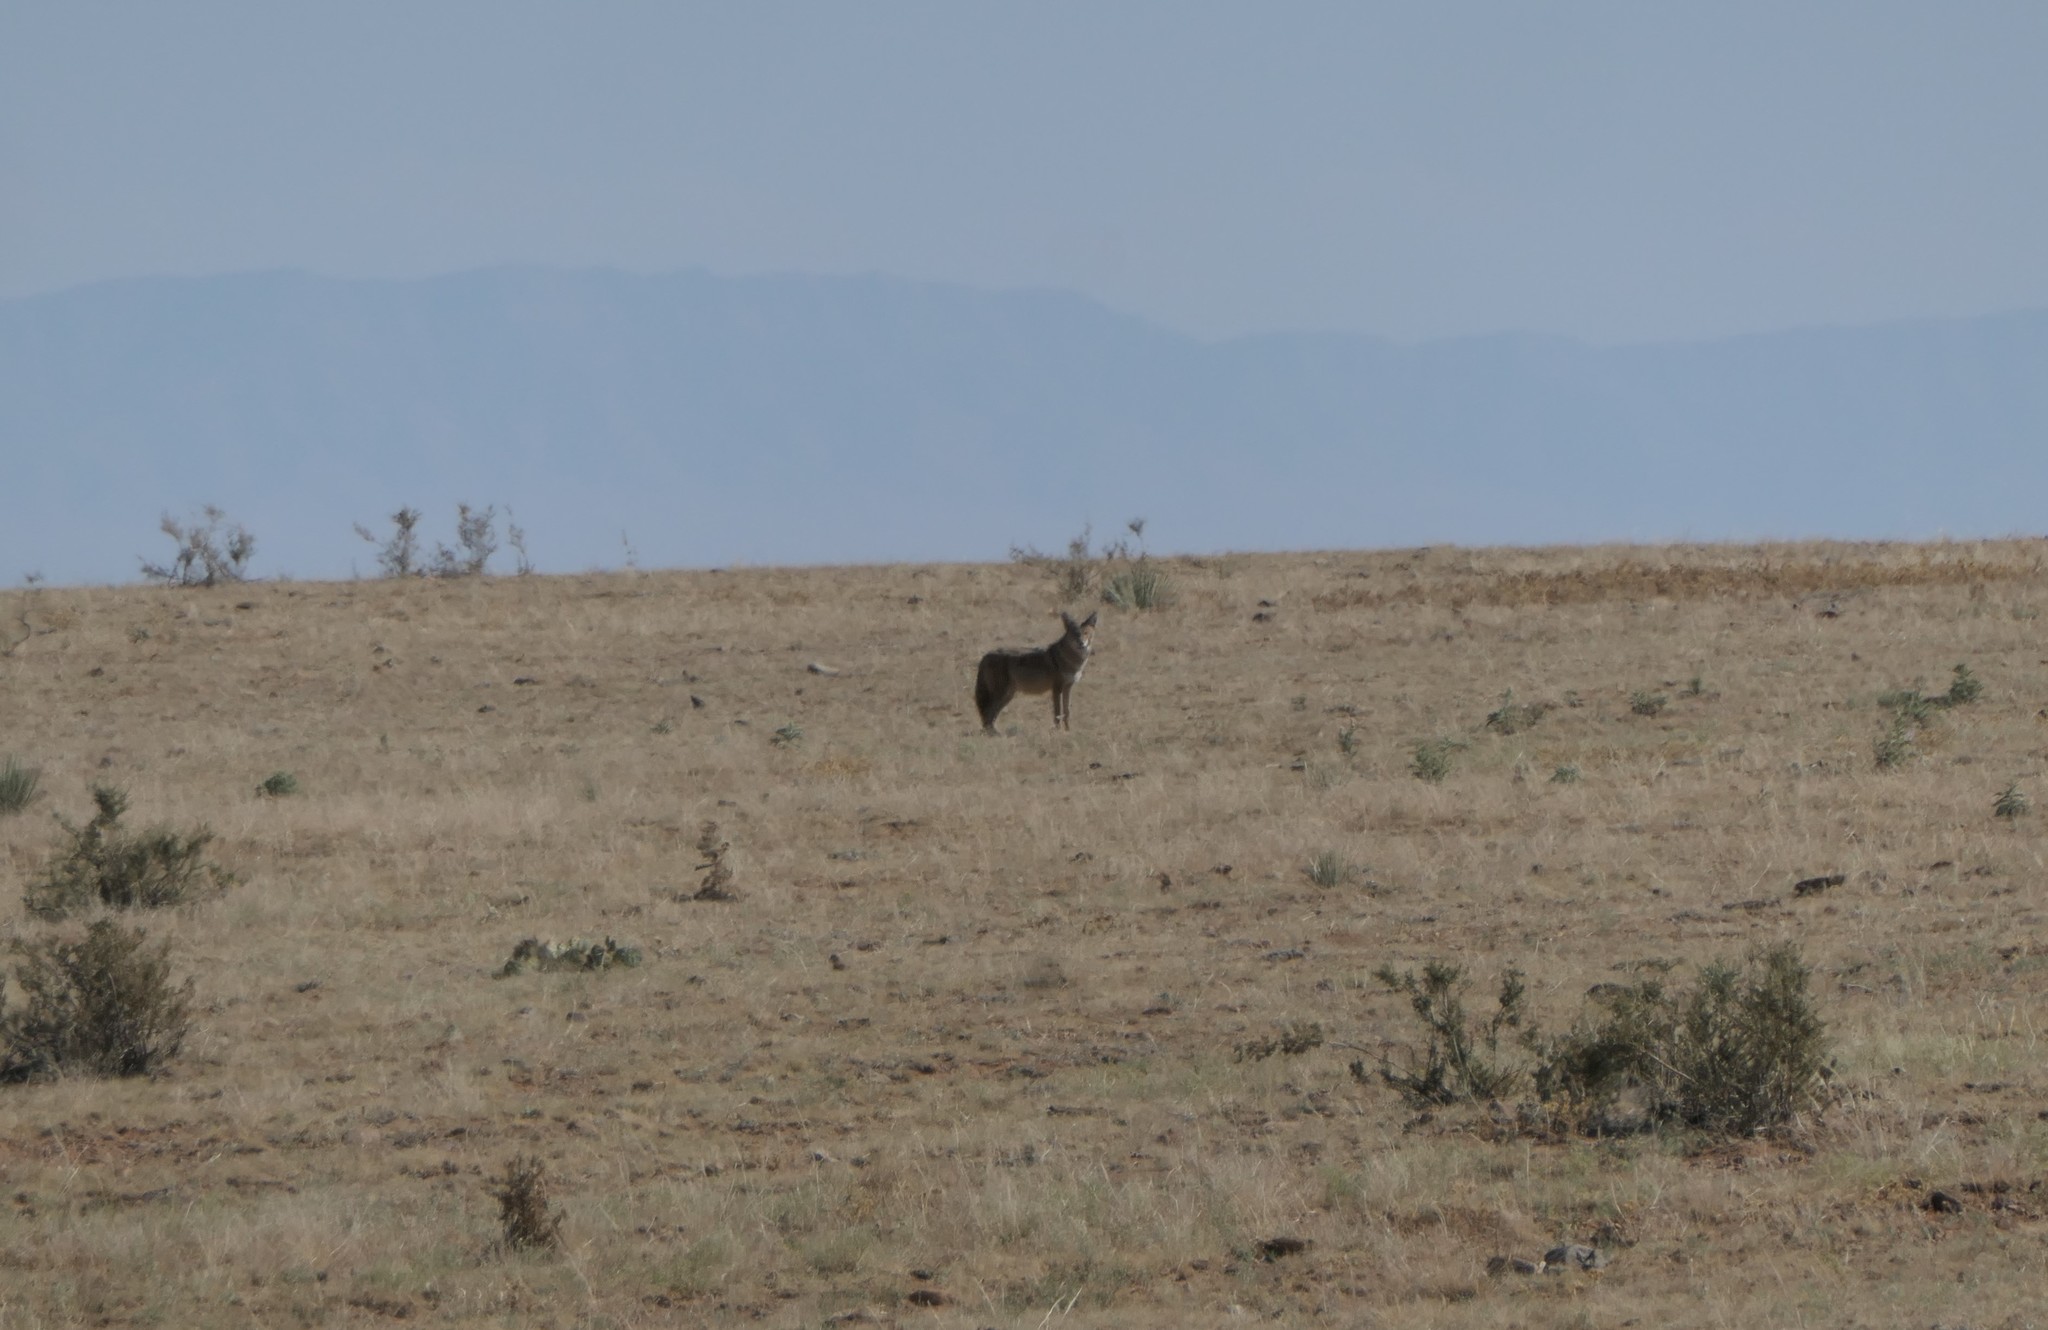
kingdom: Animalia
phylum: Chordata
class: Mammalia
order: Carnivora
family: Canidae
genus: Canis
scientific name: Canis latrans
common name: Coyote
